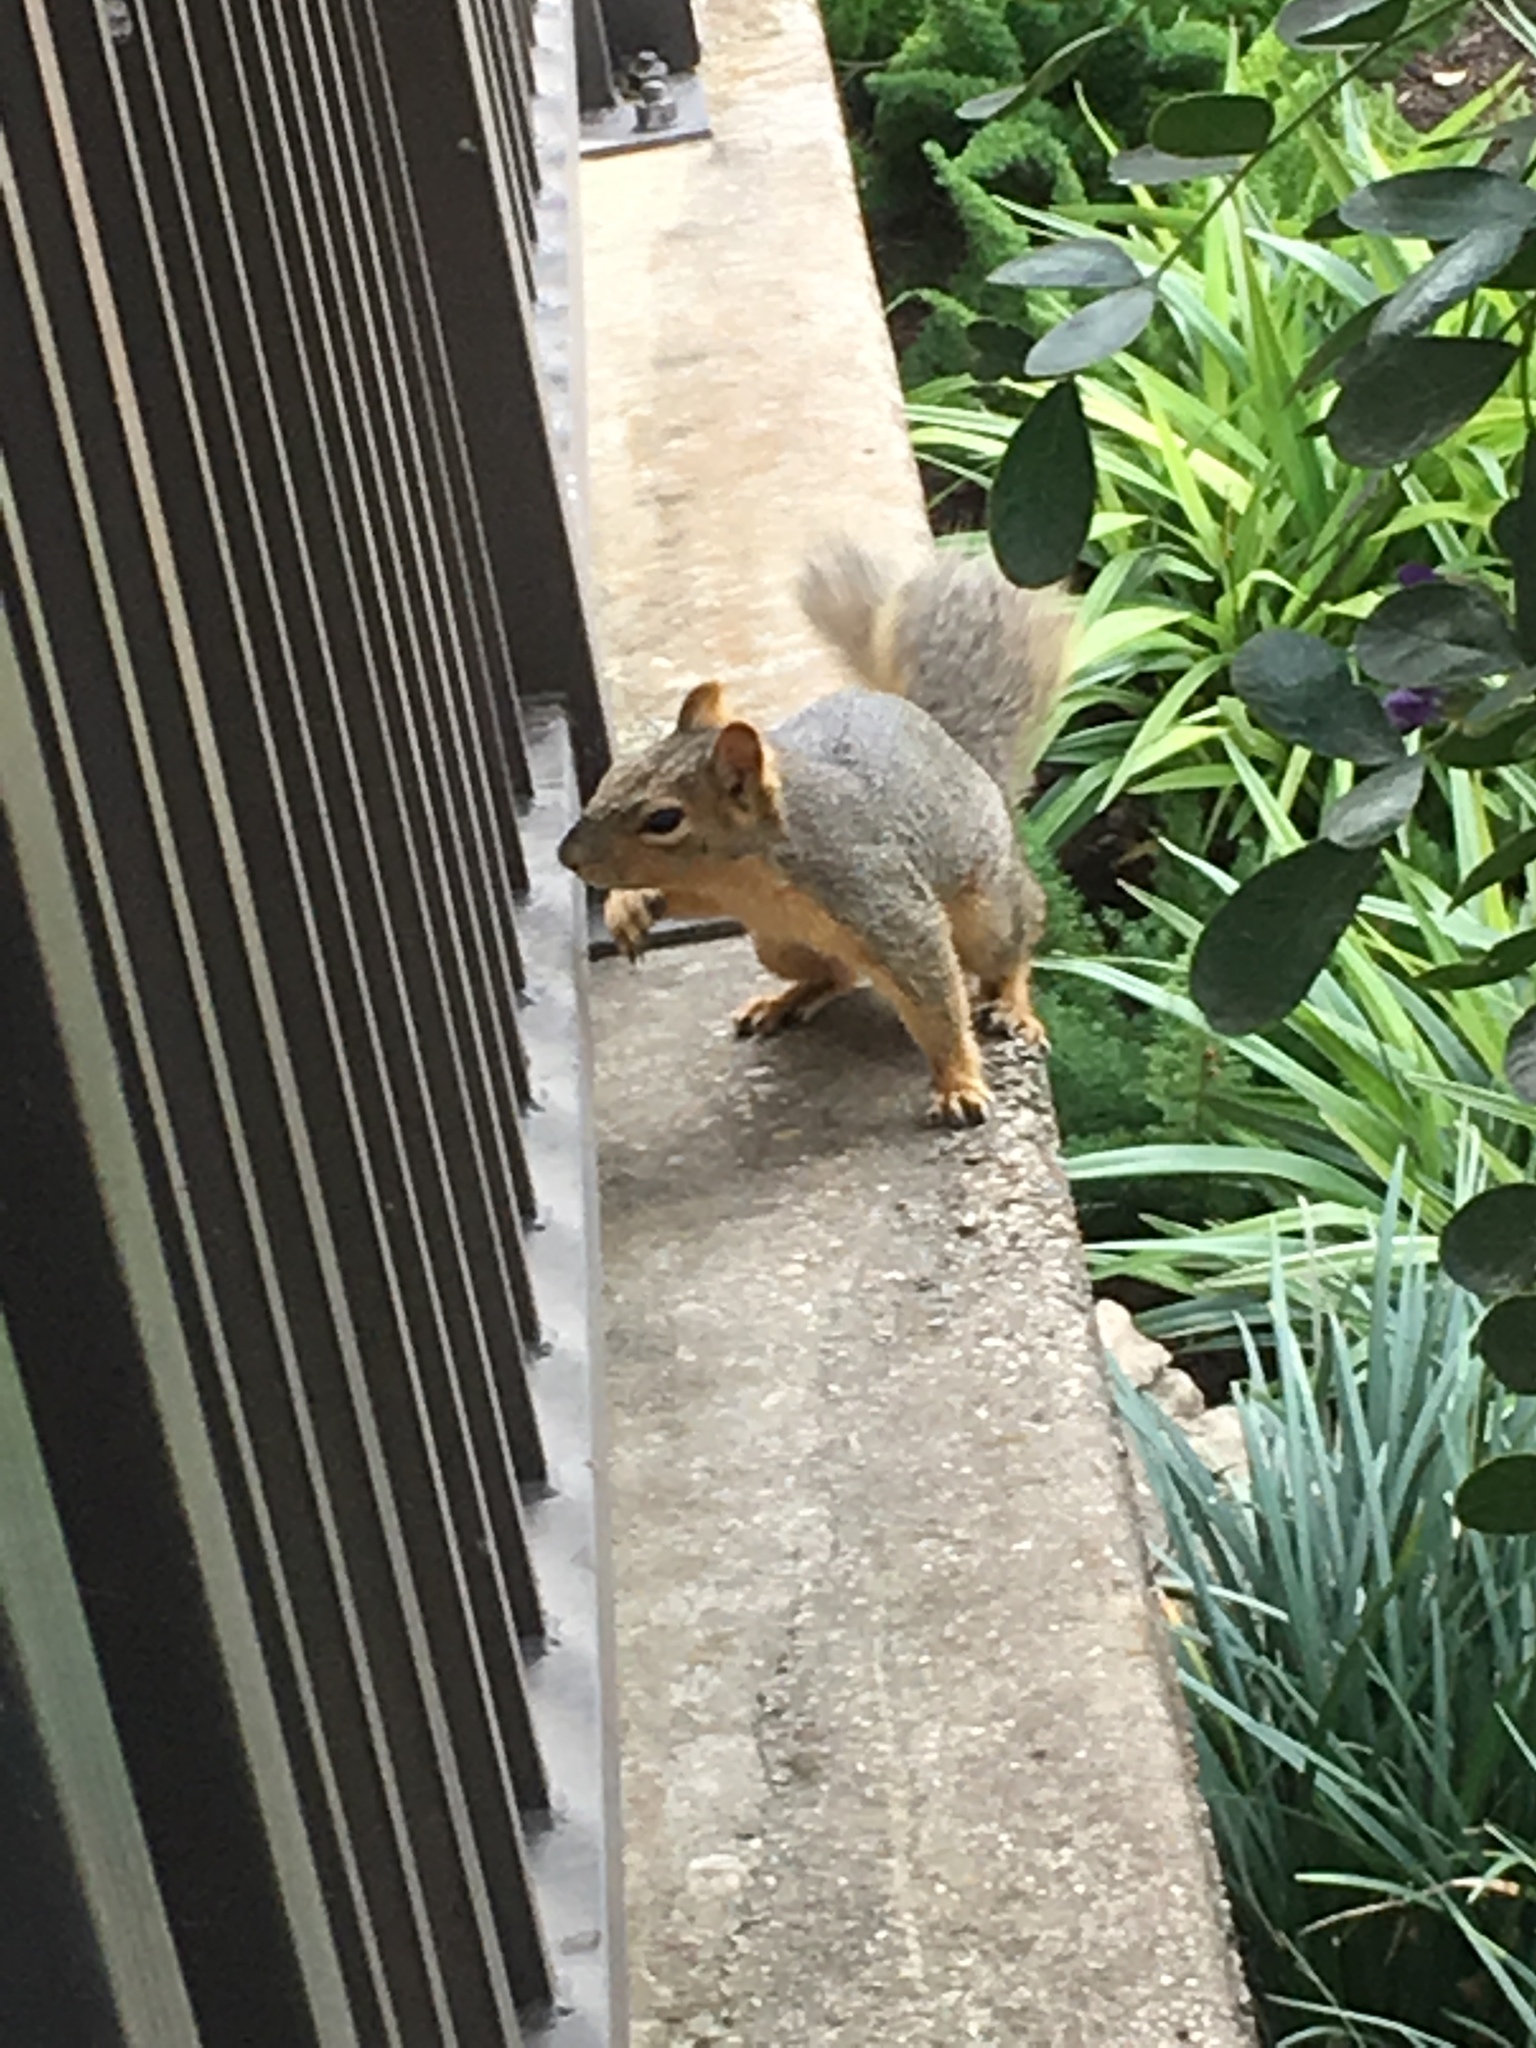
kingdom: Animalia
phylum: Chordata
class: Mammalia
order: Rodentia
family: Sciuridae
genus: Sciurus
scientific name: Sciurus niger
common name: Fox squirrel
